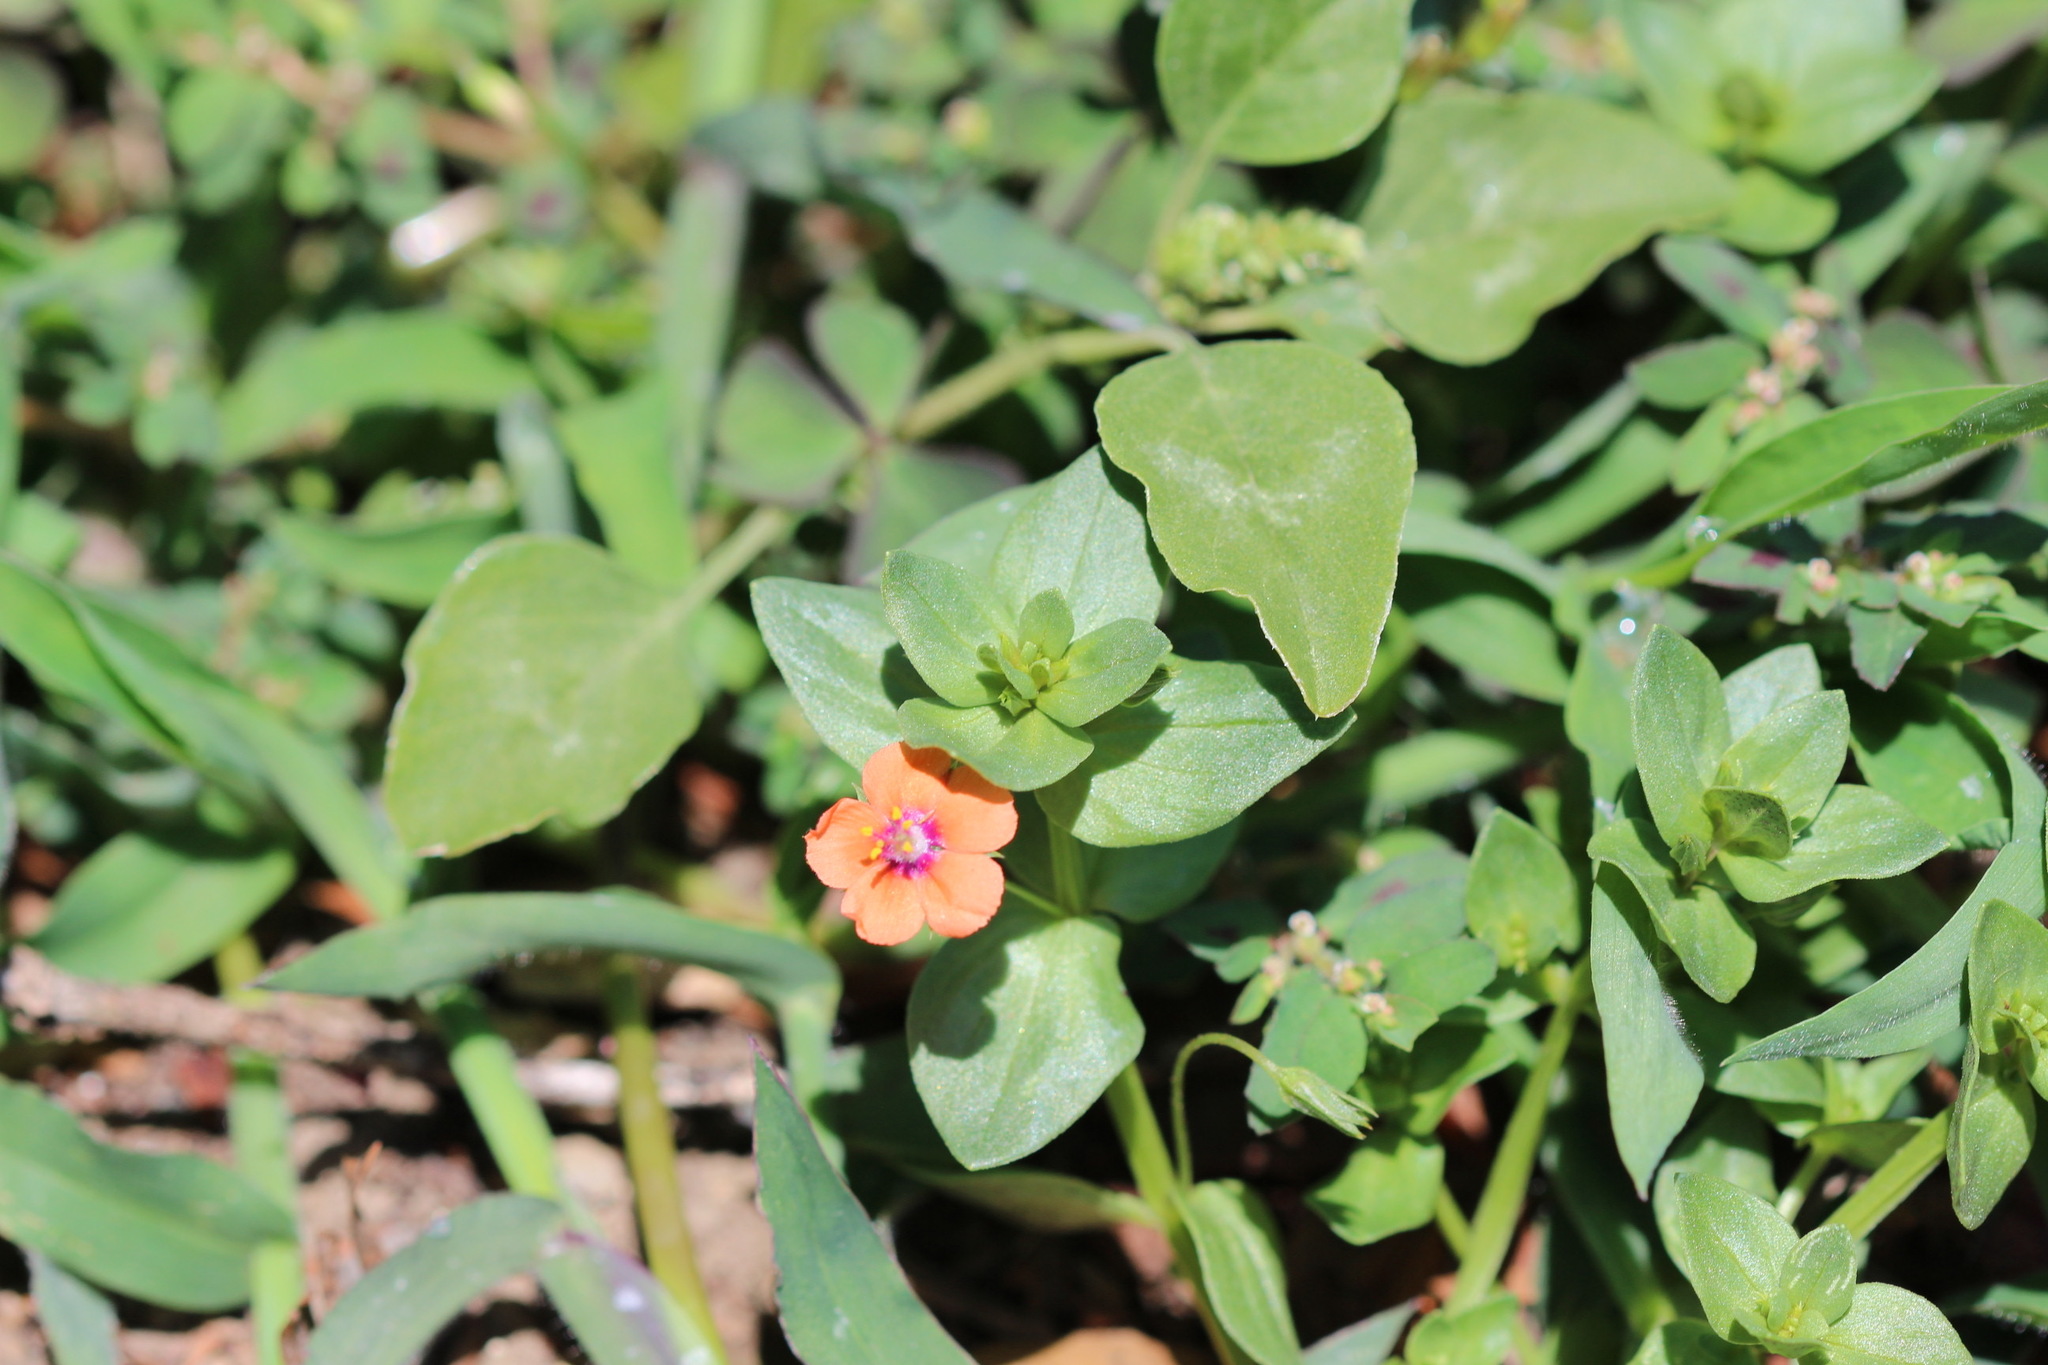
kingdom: Plantae
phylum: Tracheophyta
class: Magnoliopsida
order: Ericales
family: Primulaceae
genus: Lysimachia
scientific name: Lysimachia arvensis
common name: Scarlet pimpernel
